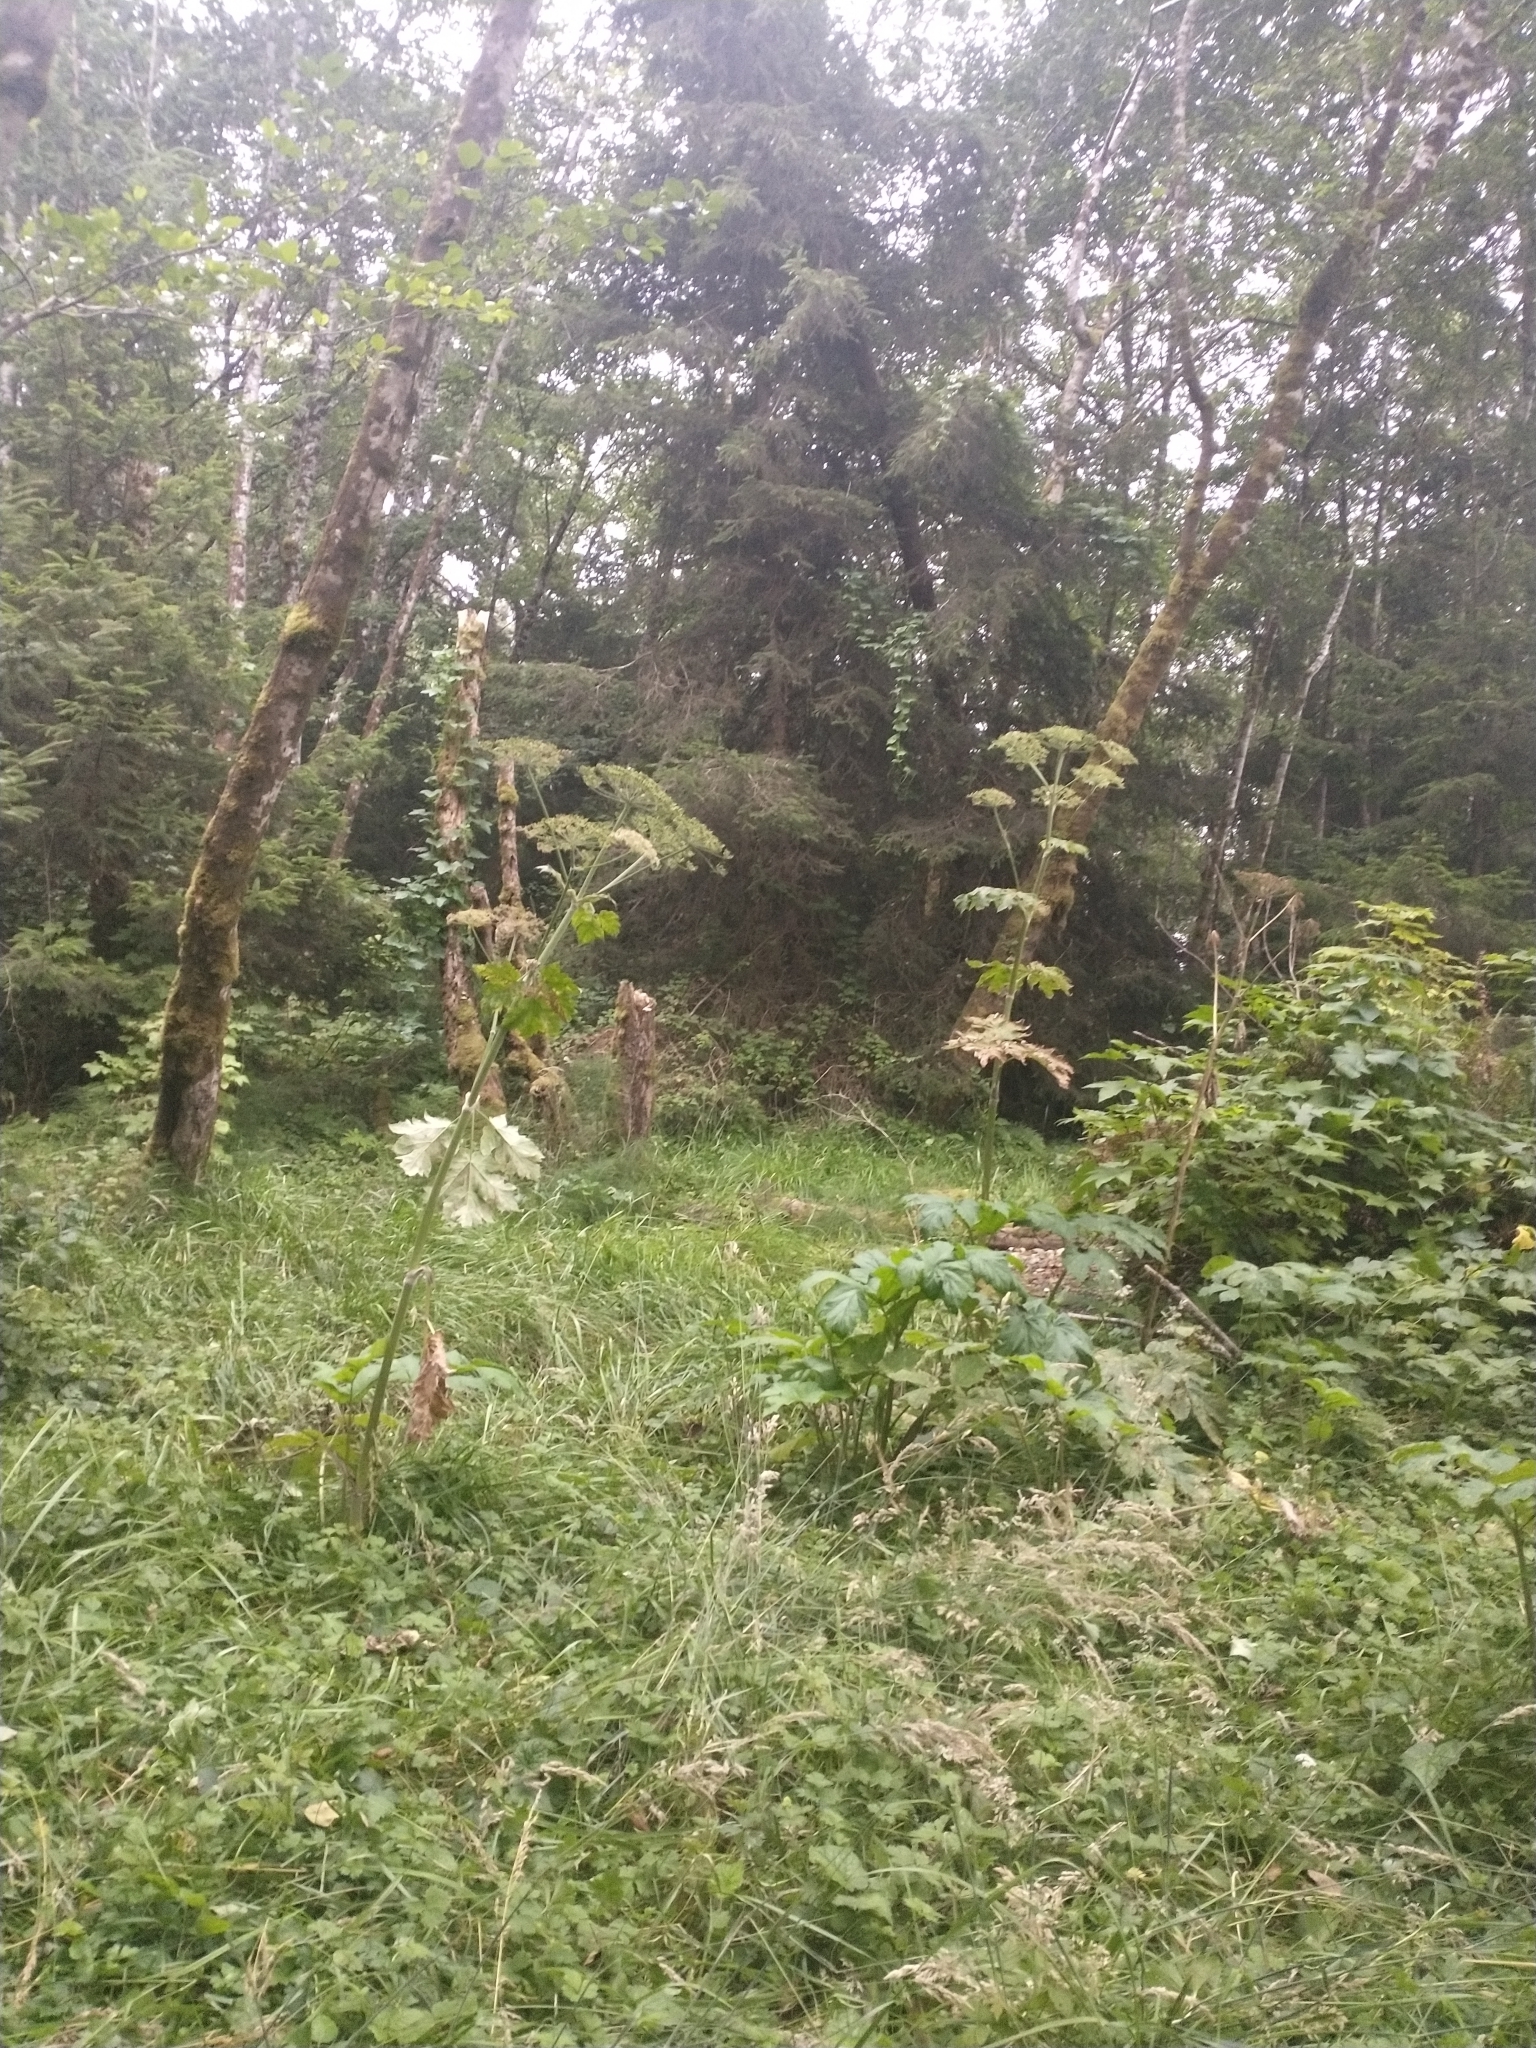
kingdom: Plantae
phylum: Tracheophyta
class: Magnoliopsida
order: Apiales
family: Apiaceae
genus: Heracleum
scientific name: Heracleum maximum
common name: American cow parsnip
